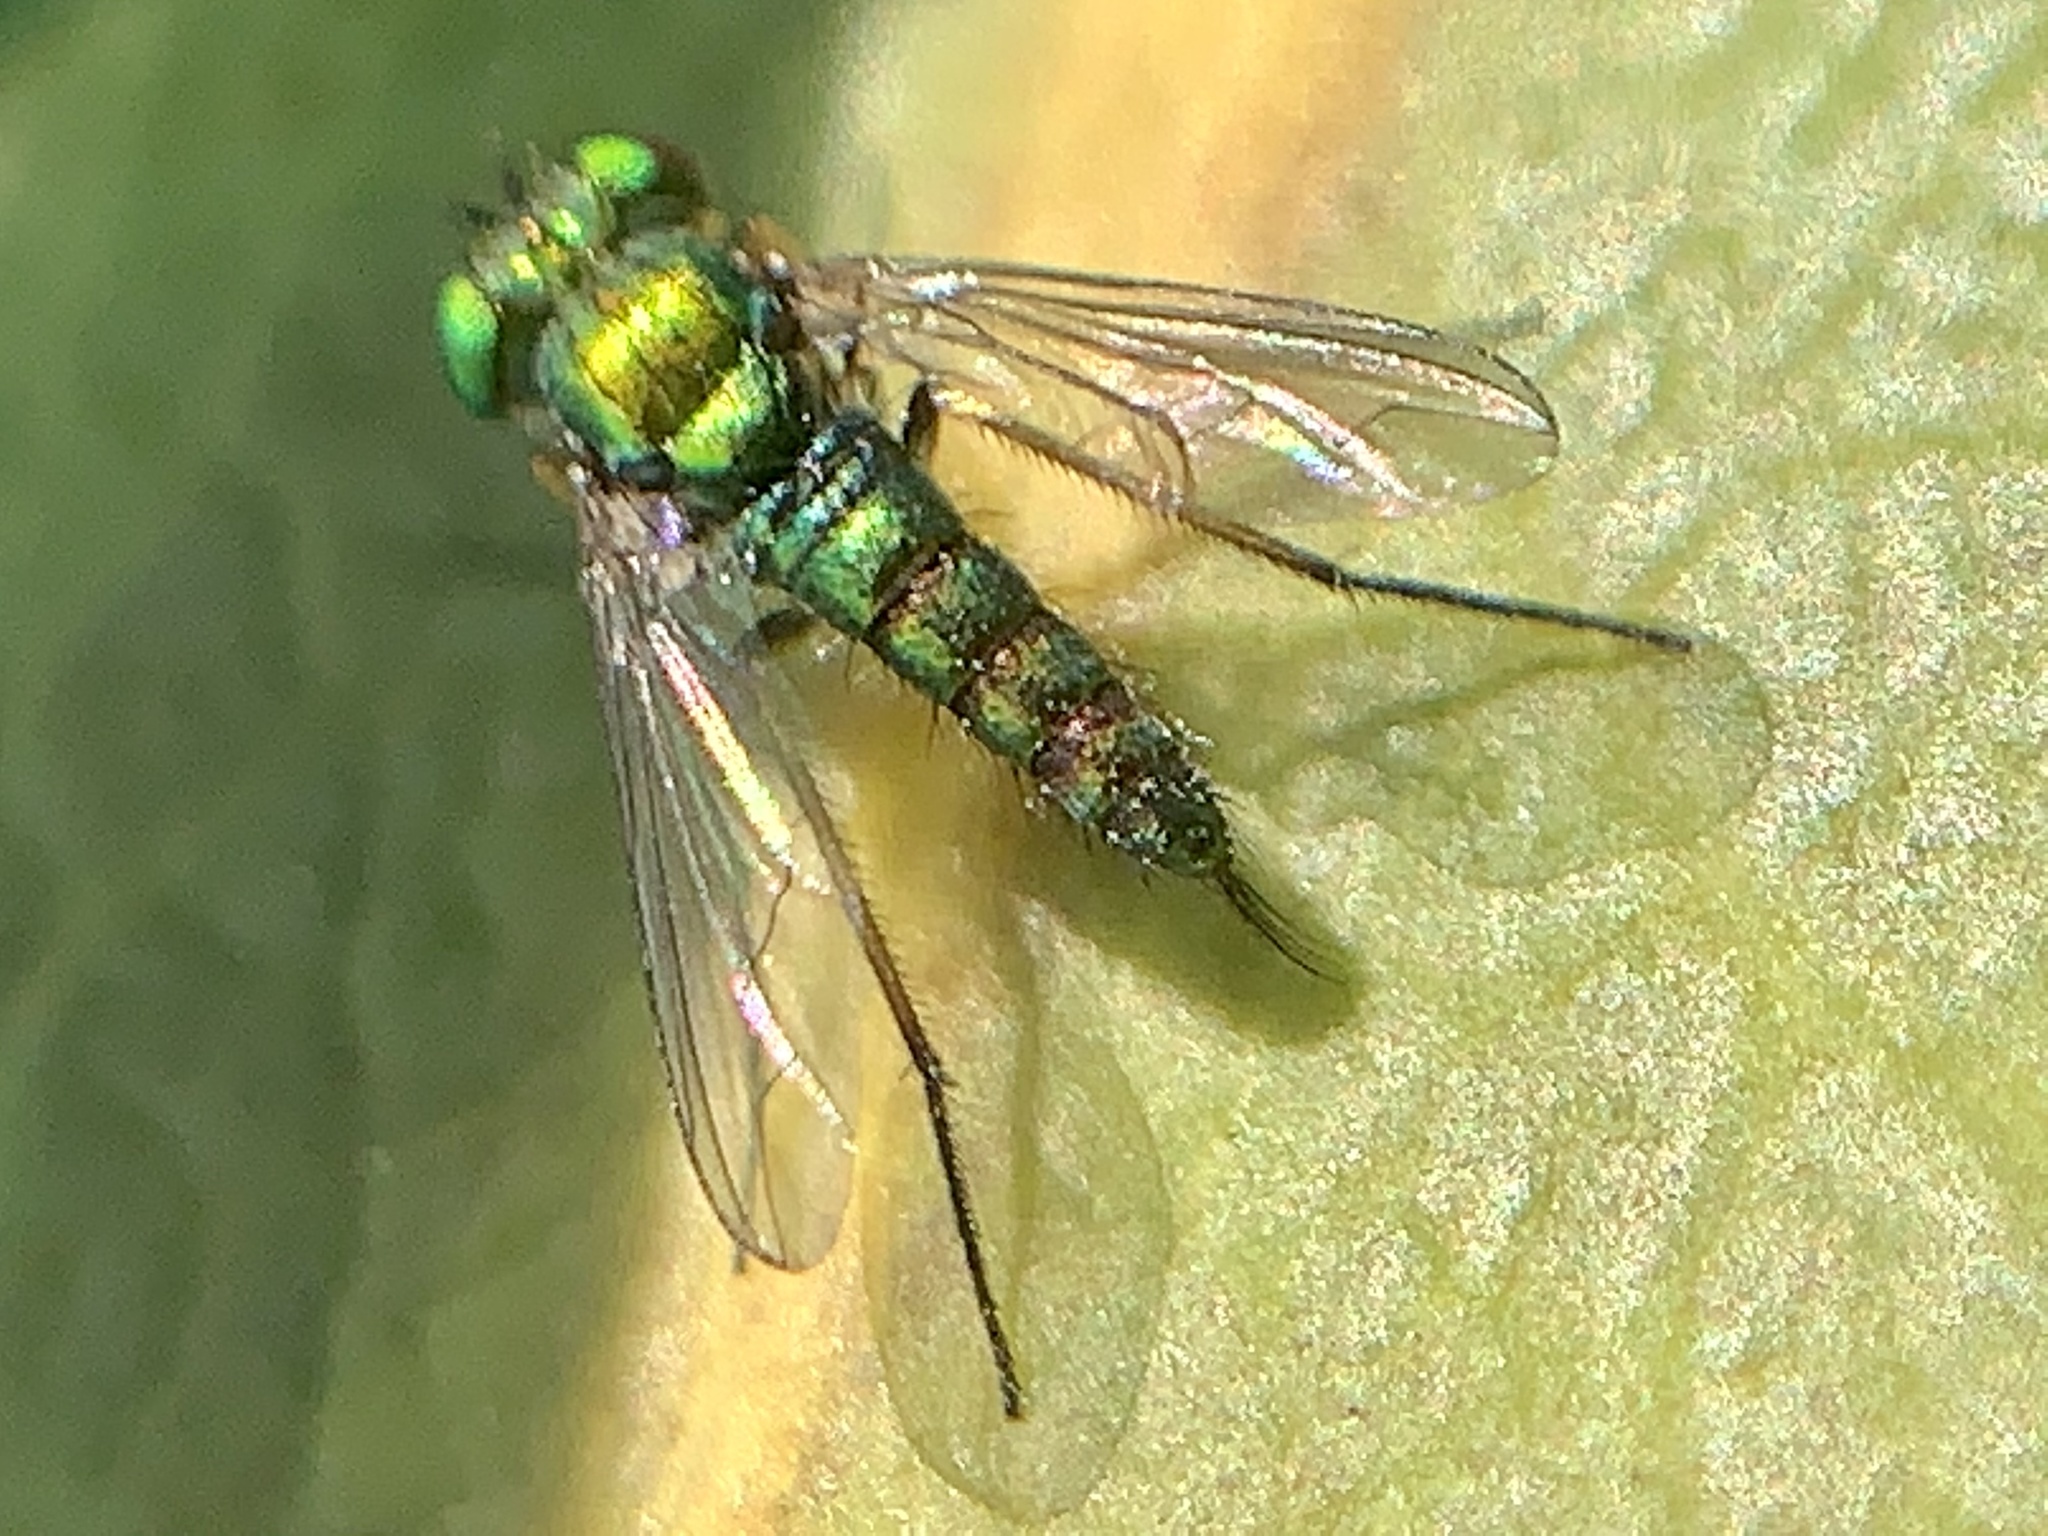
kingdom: Animalia
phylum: Arthropoda
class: Insecta
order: Diptera
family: Dolichopodidae
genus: Condylostylus
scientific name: Condylostylus caudatus
